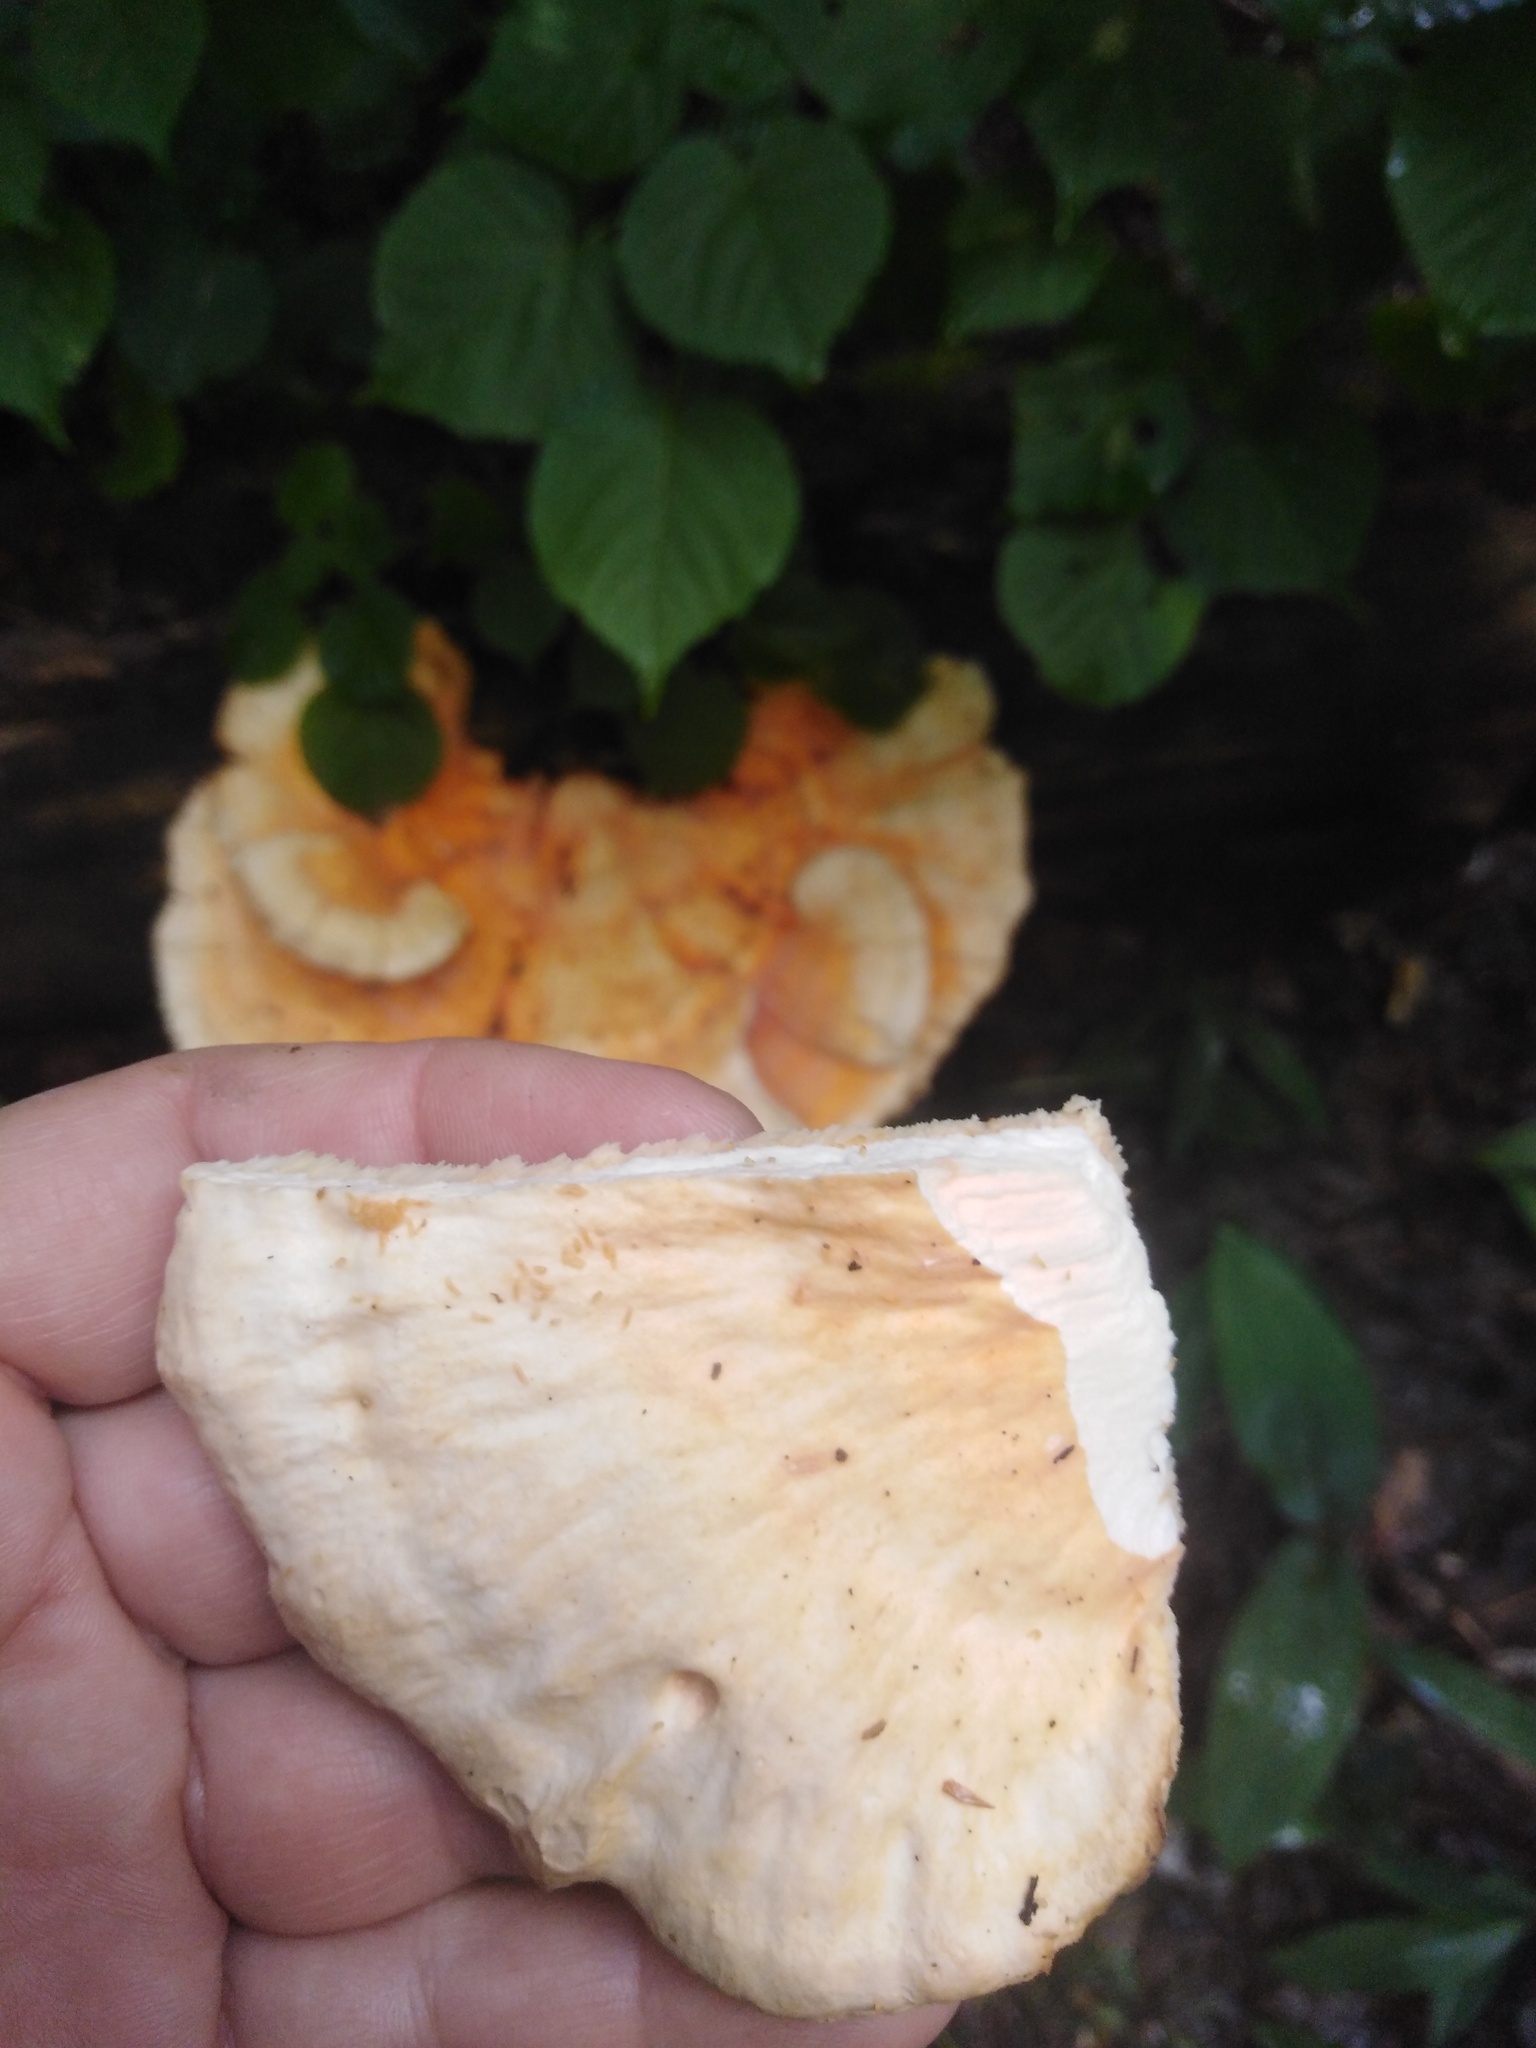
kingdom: Fungi
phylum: Basidiomycota
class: Agaricomycetes
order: Polyporales
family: Laetiporaceae
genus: Laetiporus
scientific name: Laetiporus sulphureus
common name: Chicken of the woods
